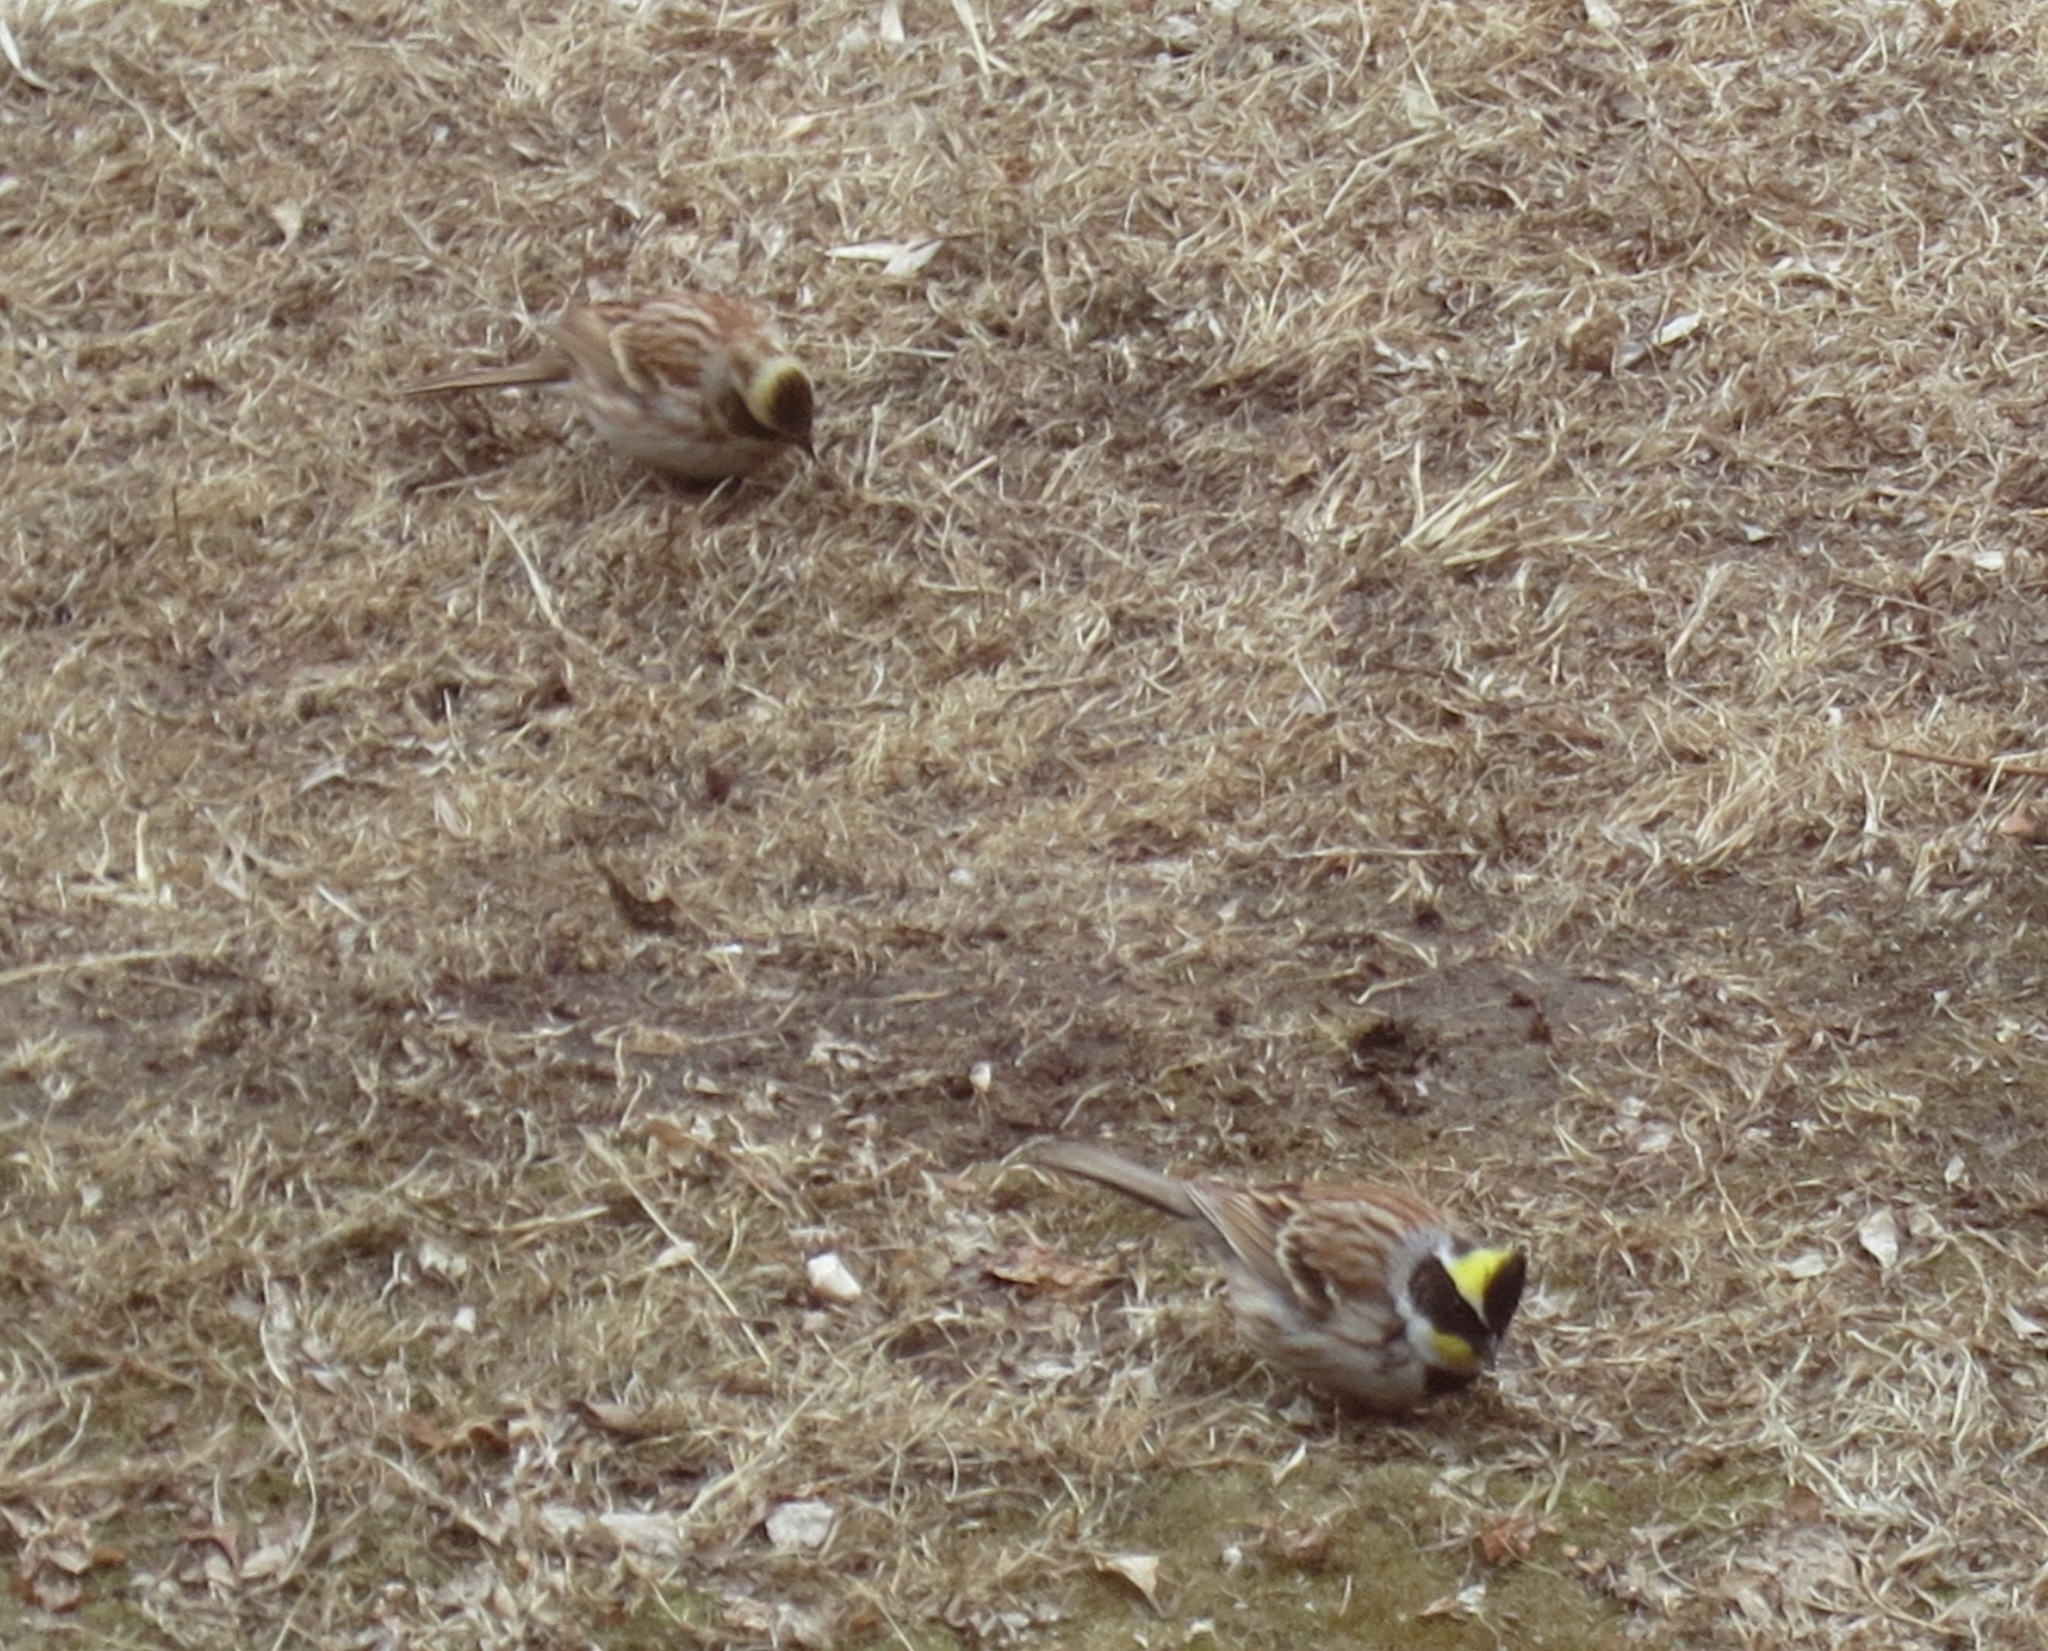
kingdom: Animalia
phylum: Chordata
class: Aves
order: Passeriformes
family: Emberizidae
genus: Emberiza
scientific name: Emberiza elegans
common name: Yellow-throated bunting
